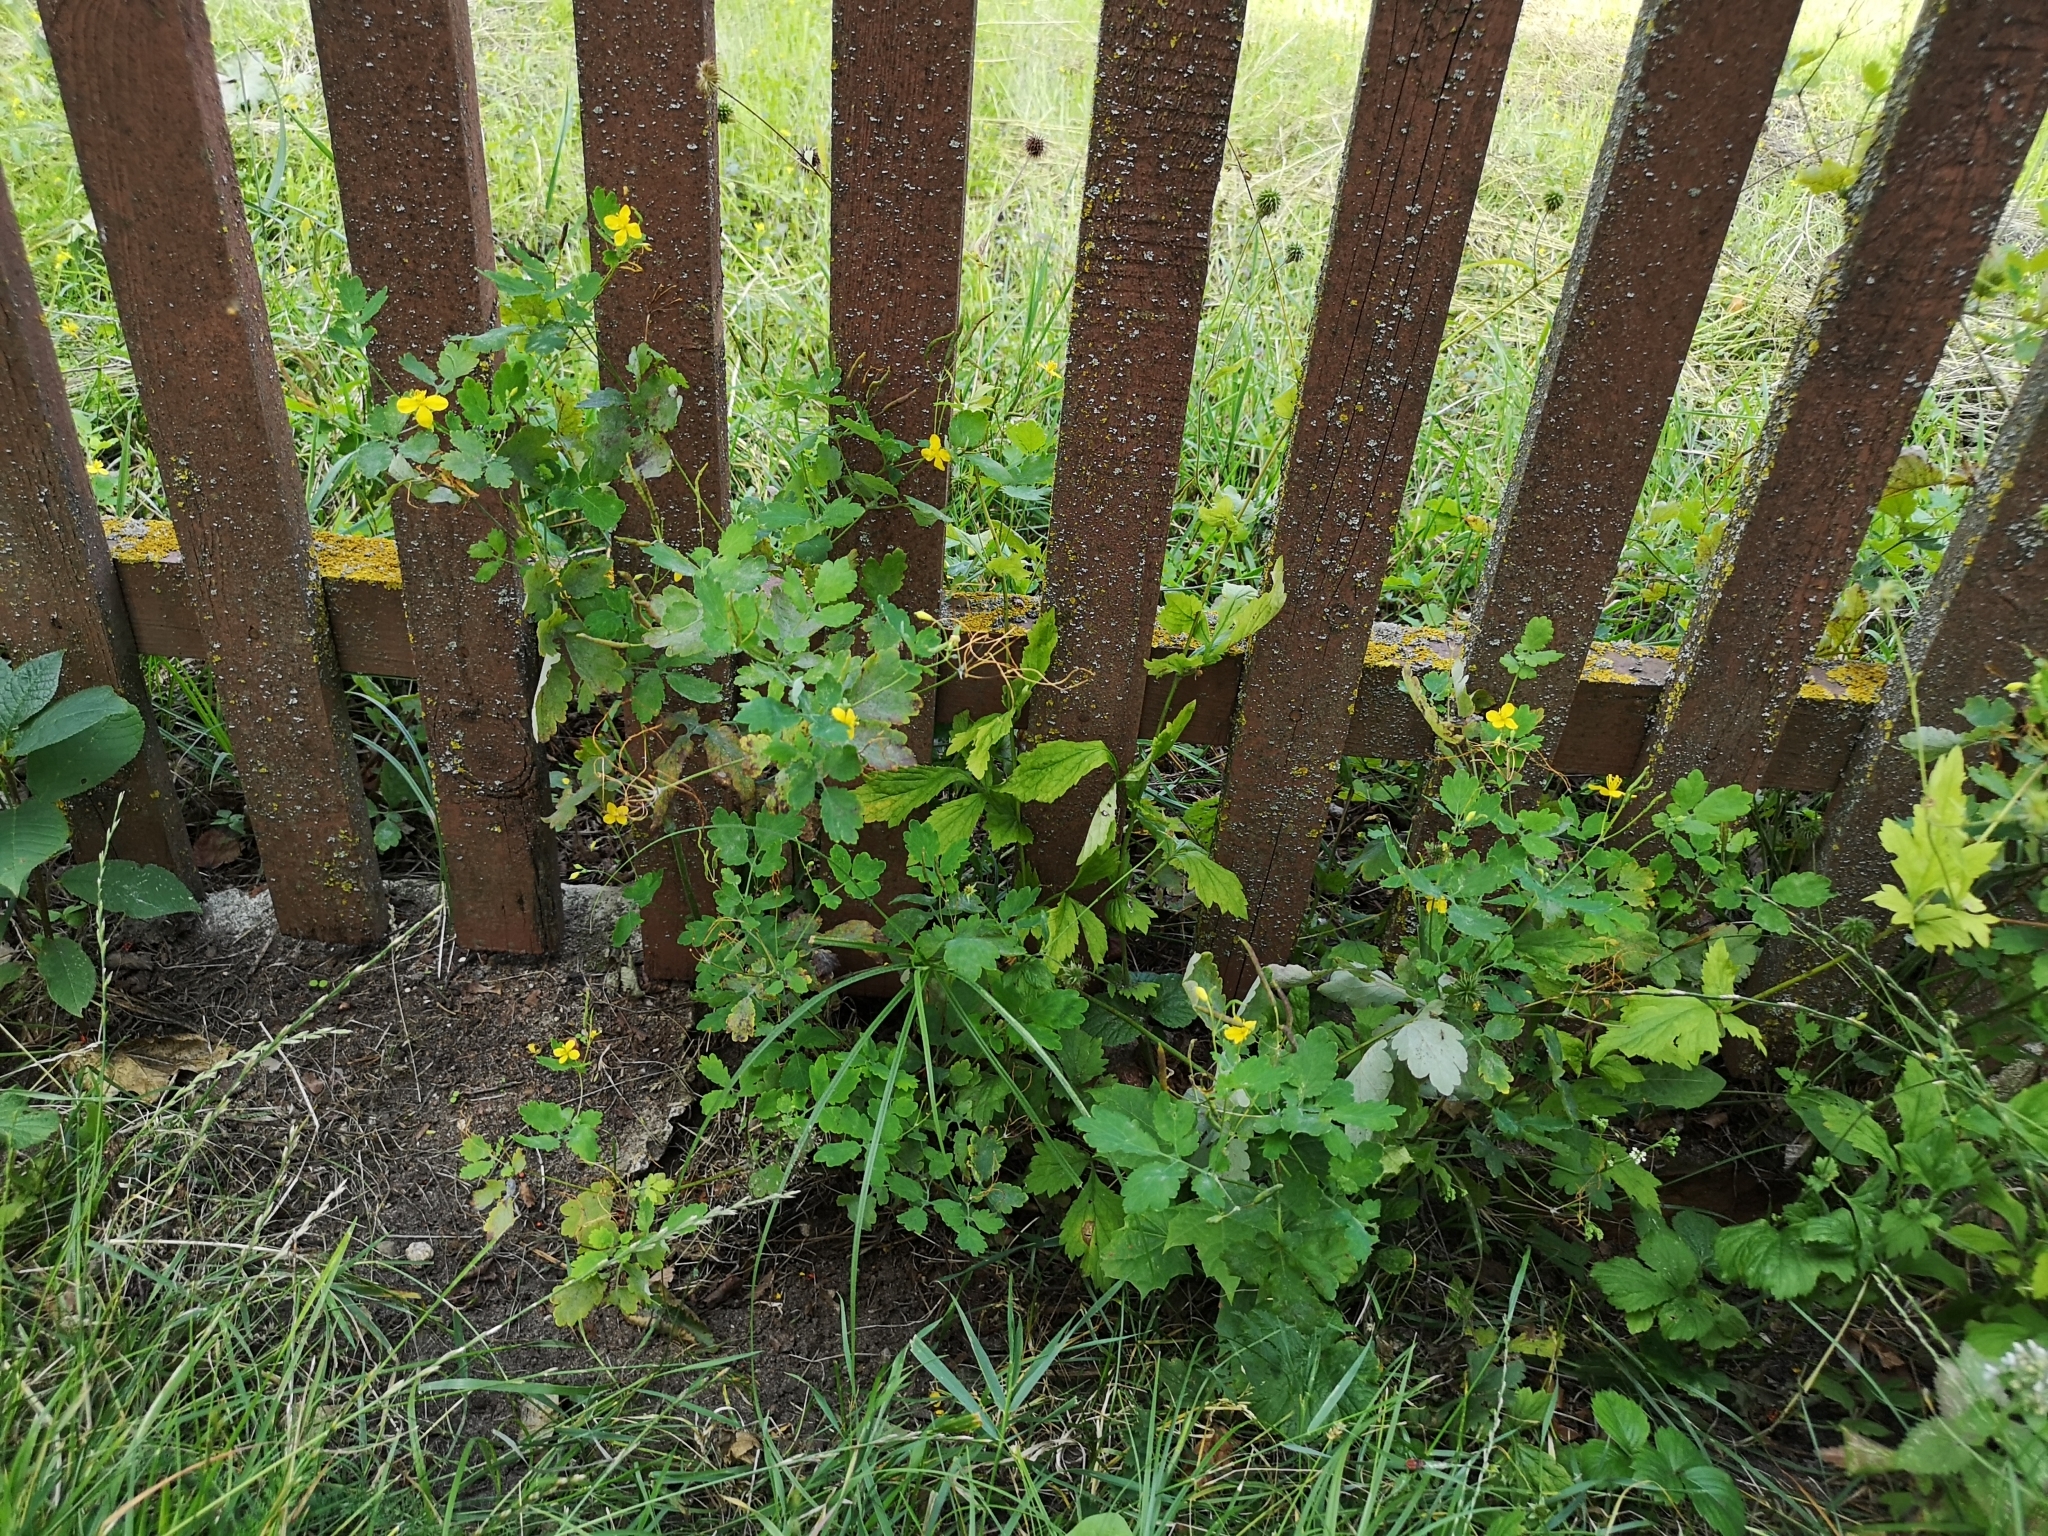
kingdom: Plantae
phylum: Tracheophyta
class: Magnoliopsida
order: Ranunculales
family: Papaveraceae
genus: Chelidonium
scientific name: Chelidonium majus
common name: Greater celandine
